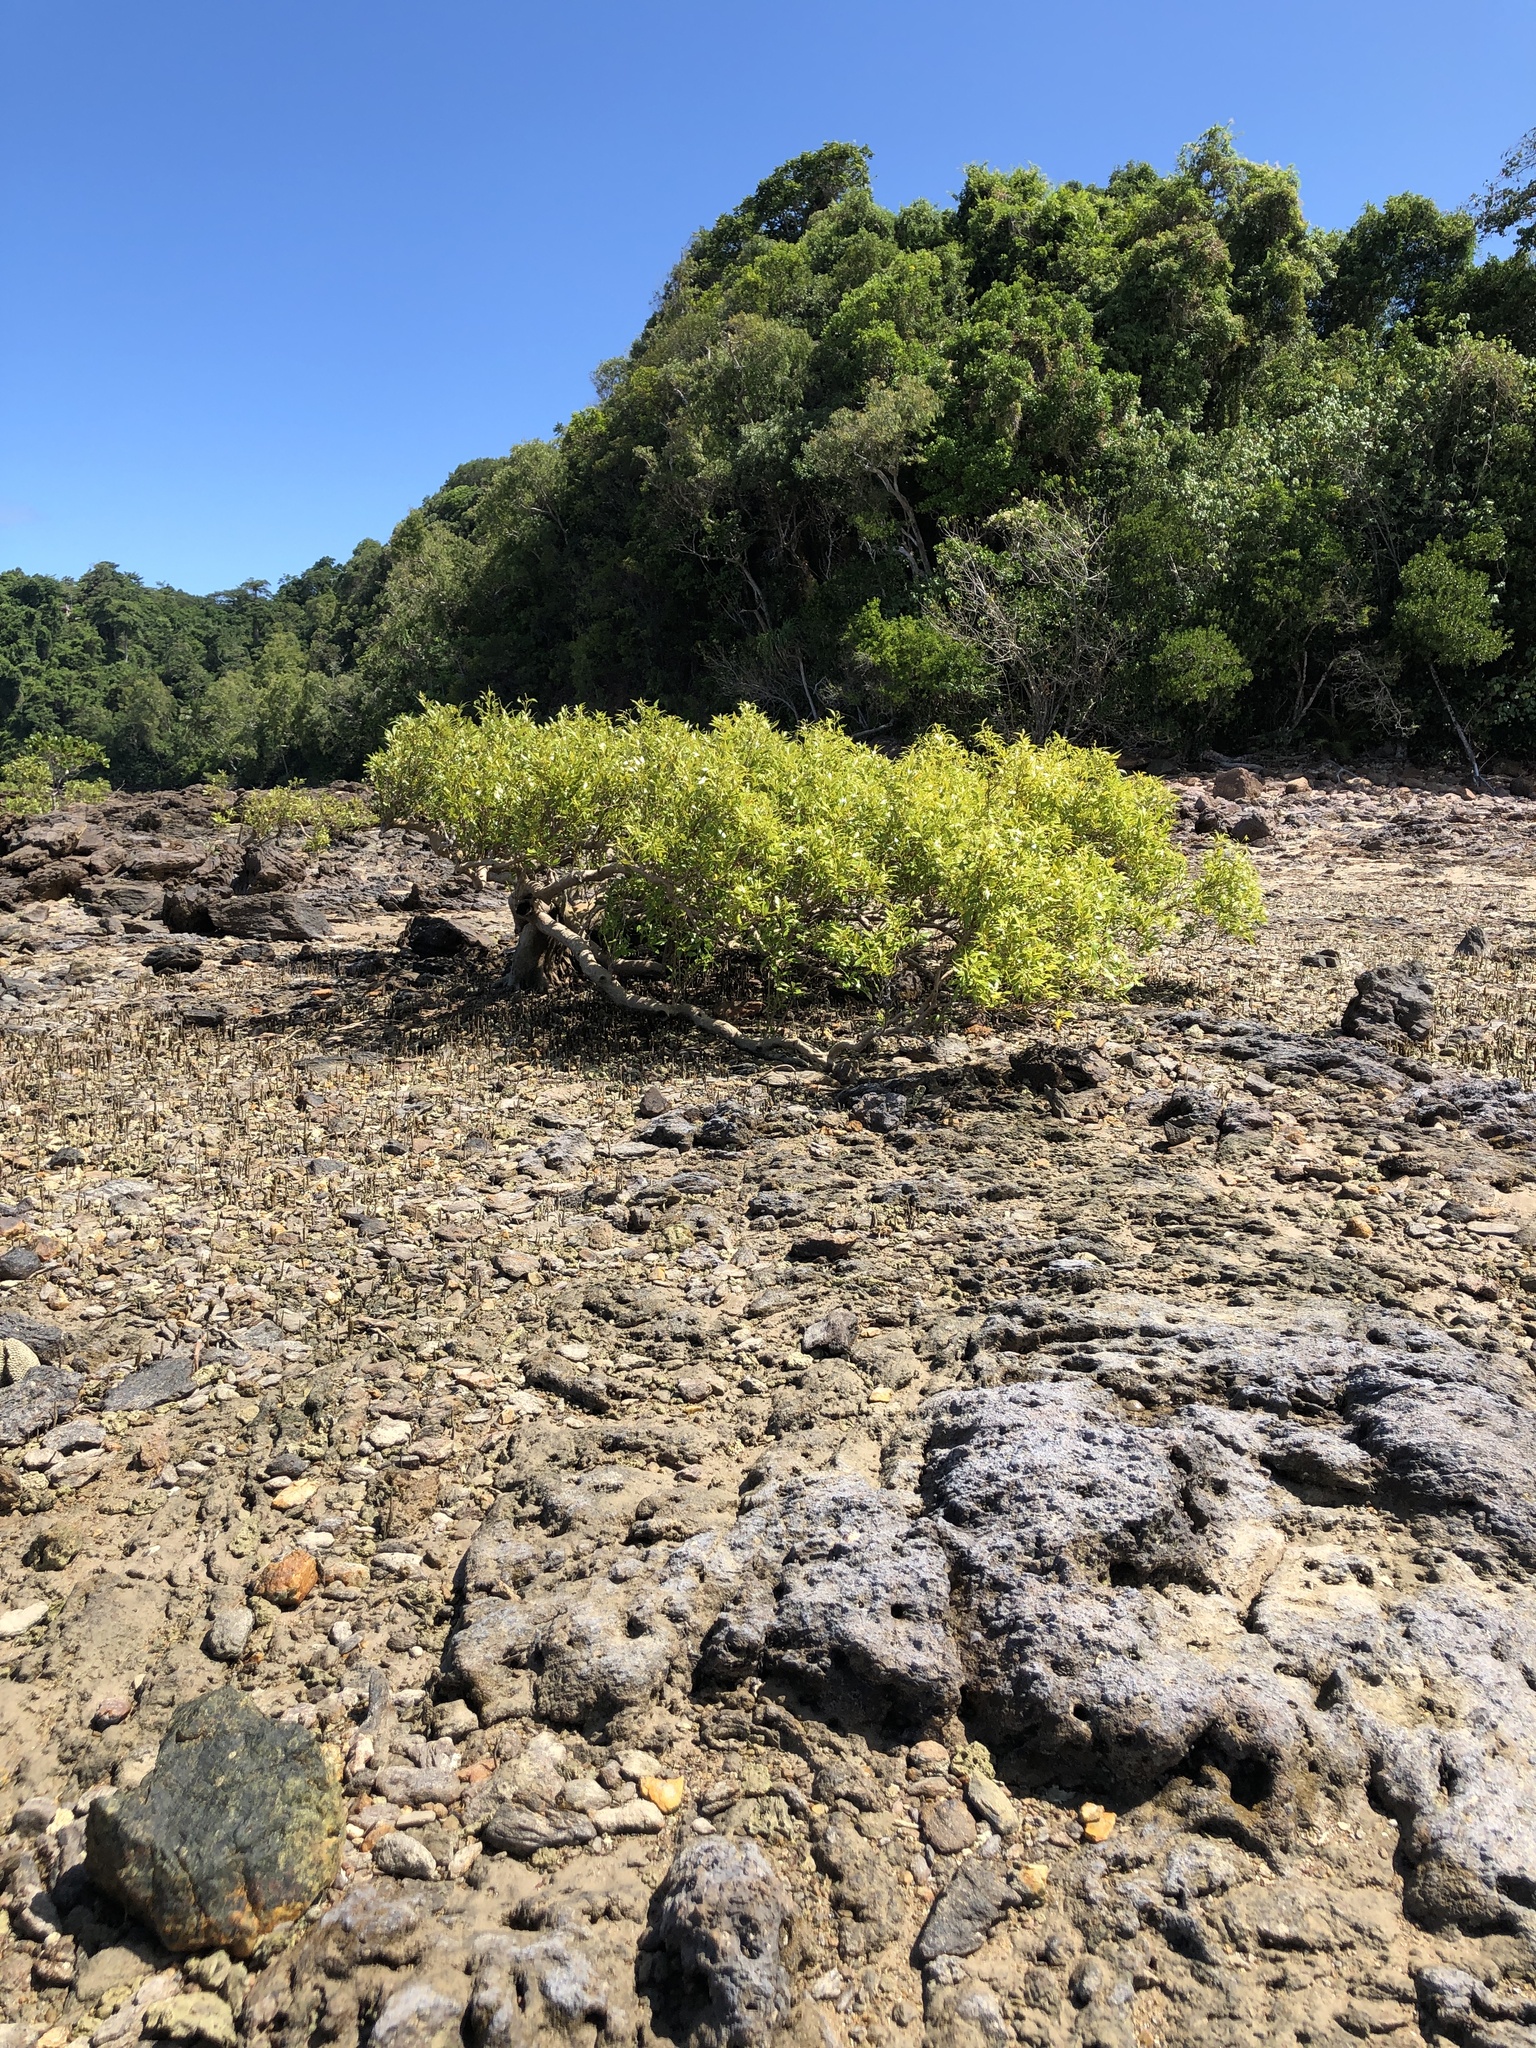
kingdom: Plantae
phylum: Tracheophyta
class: Magnoliopsida
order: Lamiales
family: Acanthaceae
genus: Avicennia
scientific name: Avicennia marina
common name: Gray mangrove
